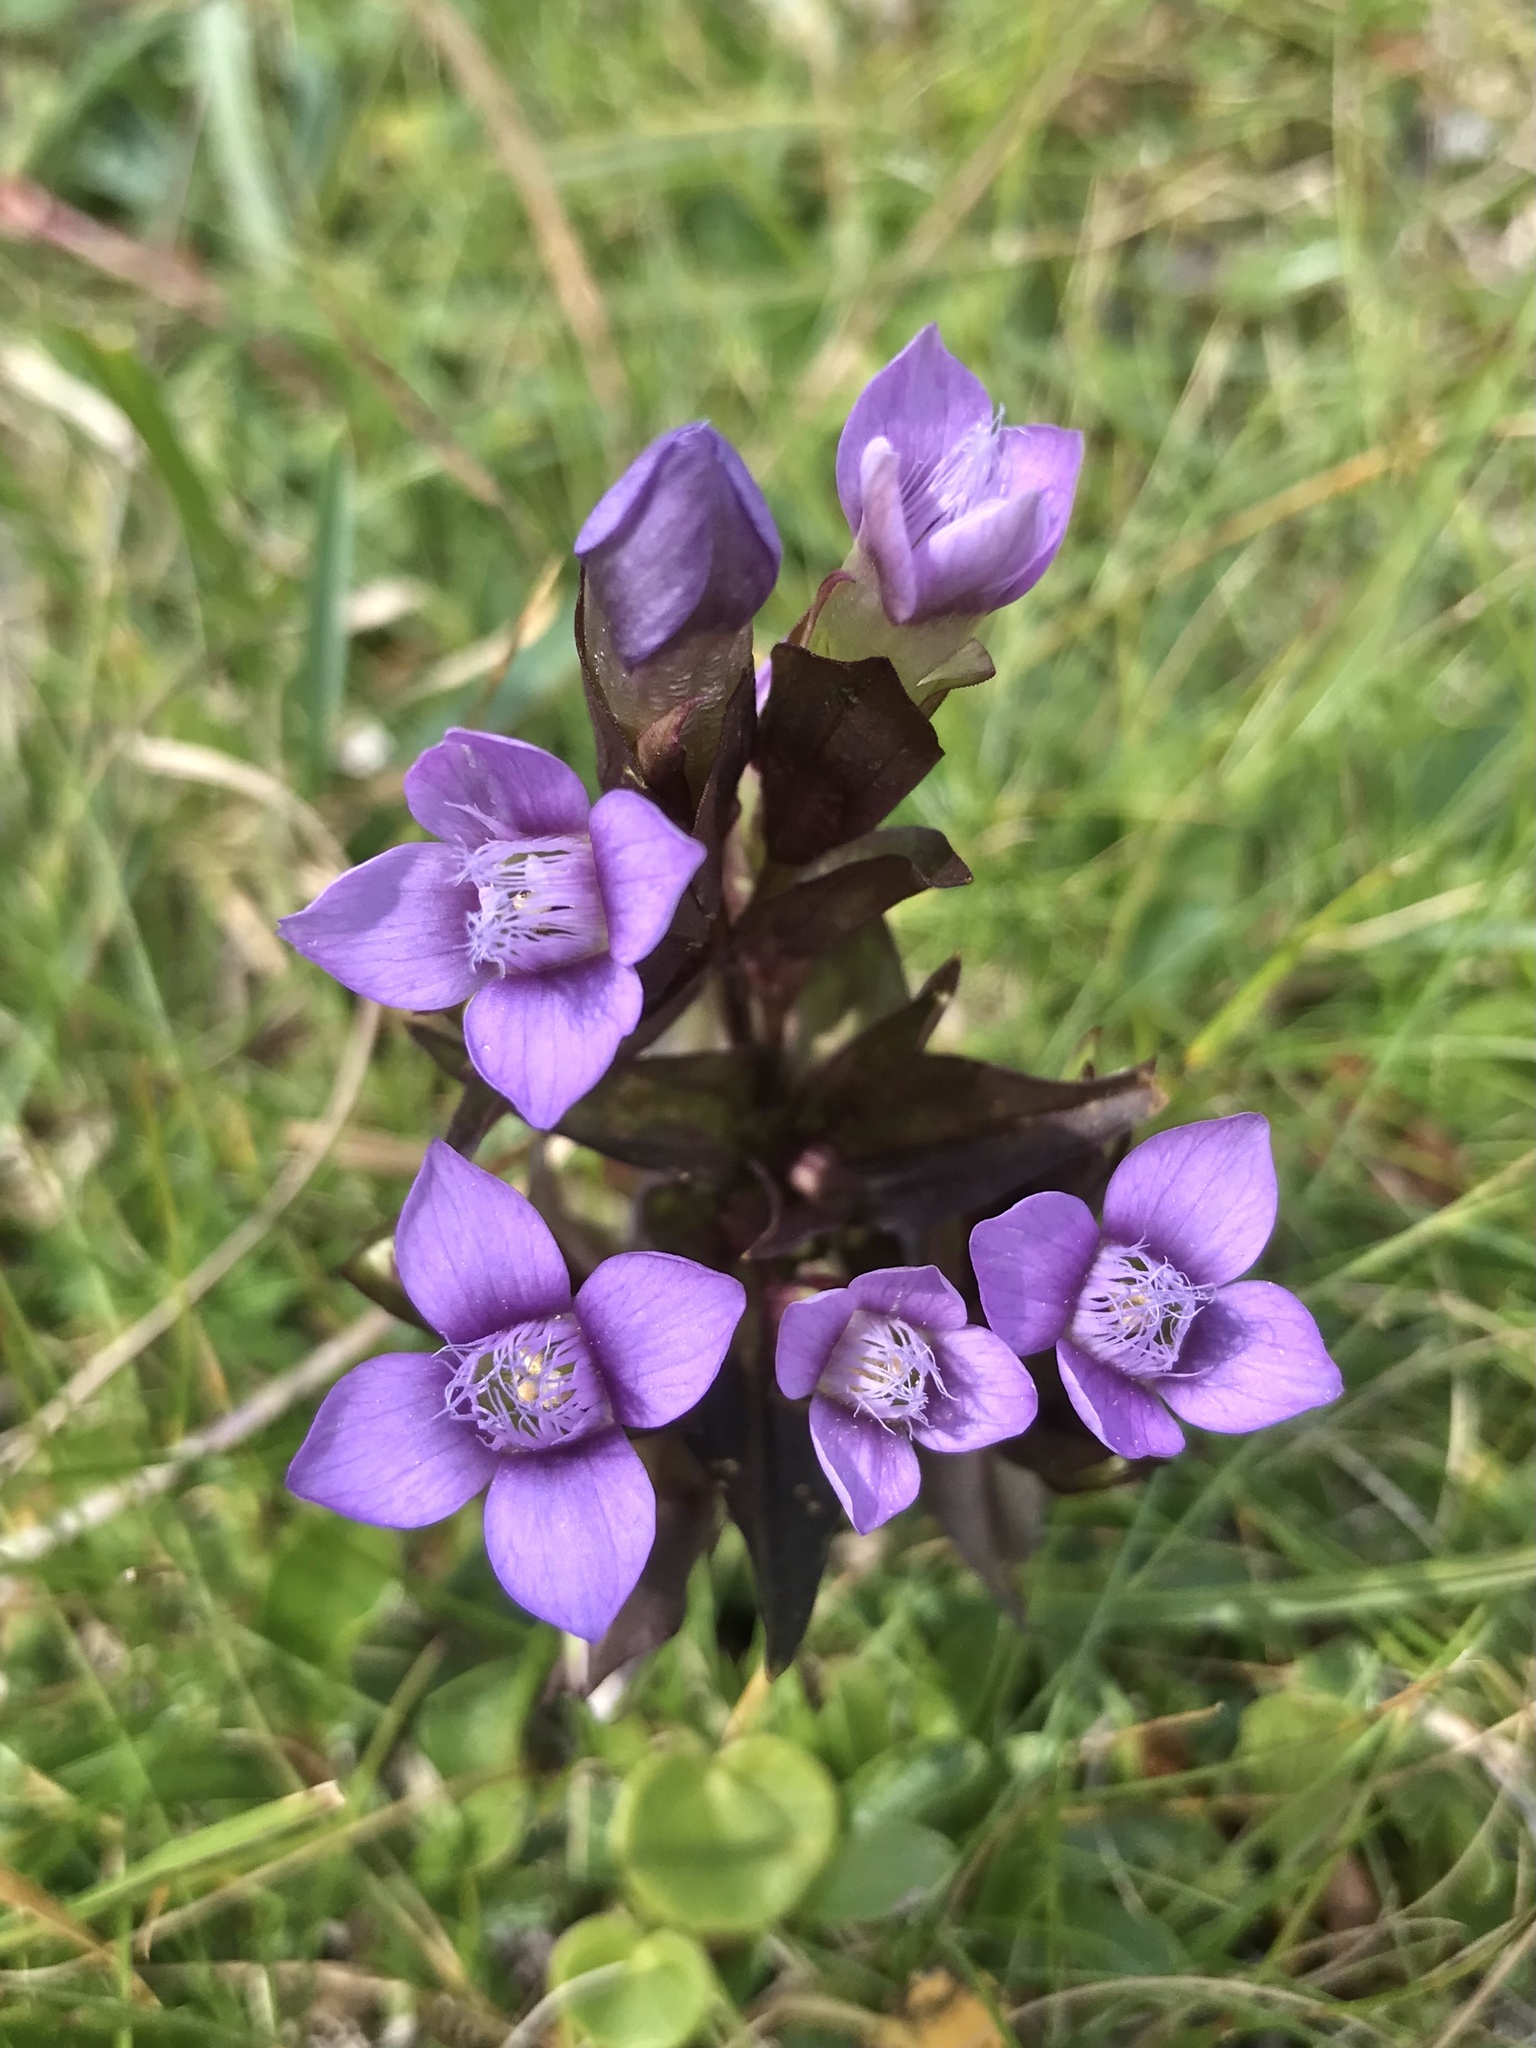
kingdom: Plantae
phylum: Tracheophyta
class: Magnoliopsida
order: Gentianales
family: Gentianaceae
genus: Gentianella
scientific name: Gentianella campestris
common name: Field gentian
